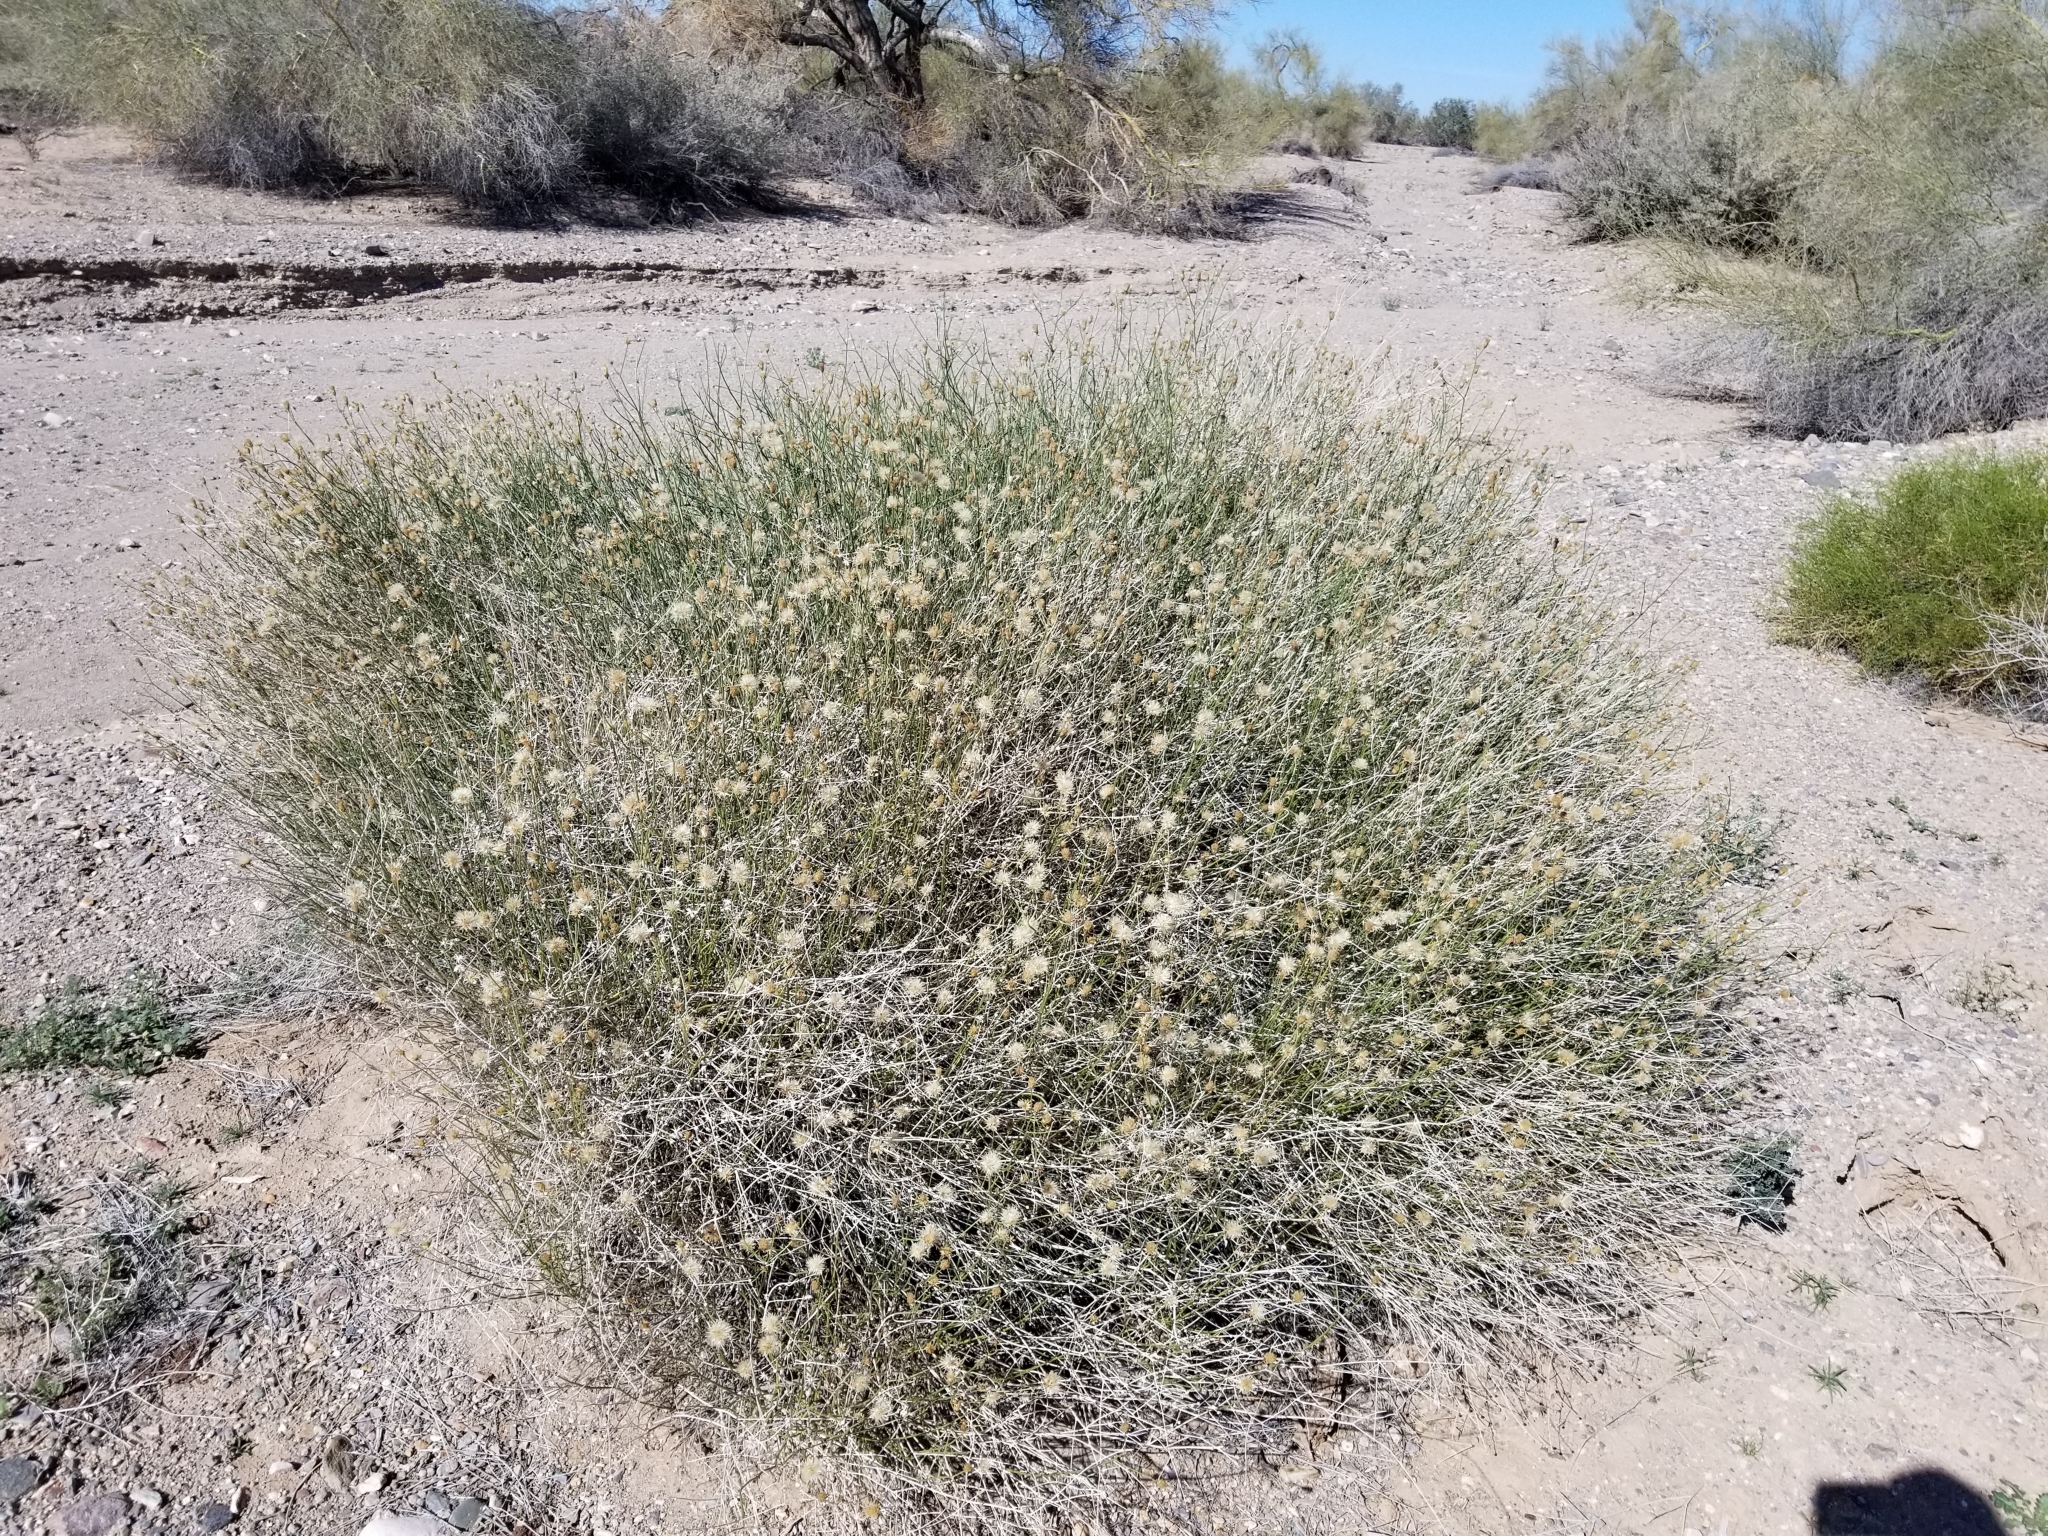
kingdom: Plantae
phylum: Tracheophyta
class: Magnoliopsida
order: Asterales
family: Asteraceae
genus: Bebbia
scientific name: Bebbia juncea
